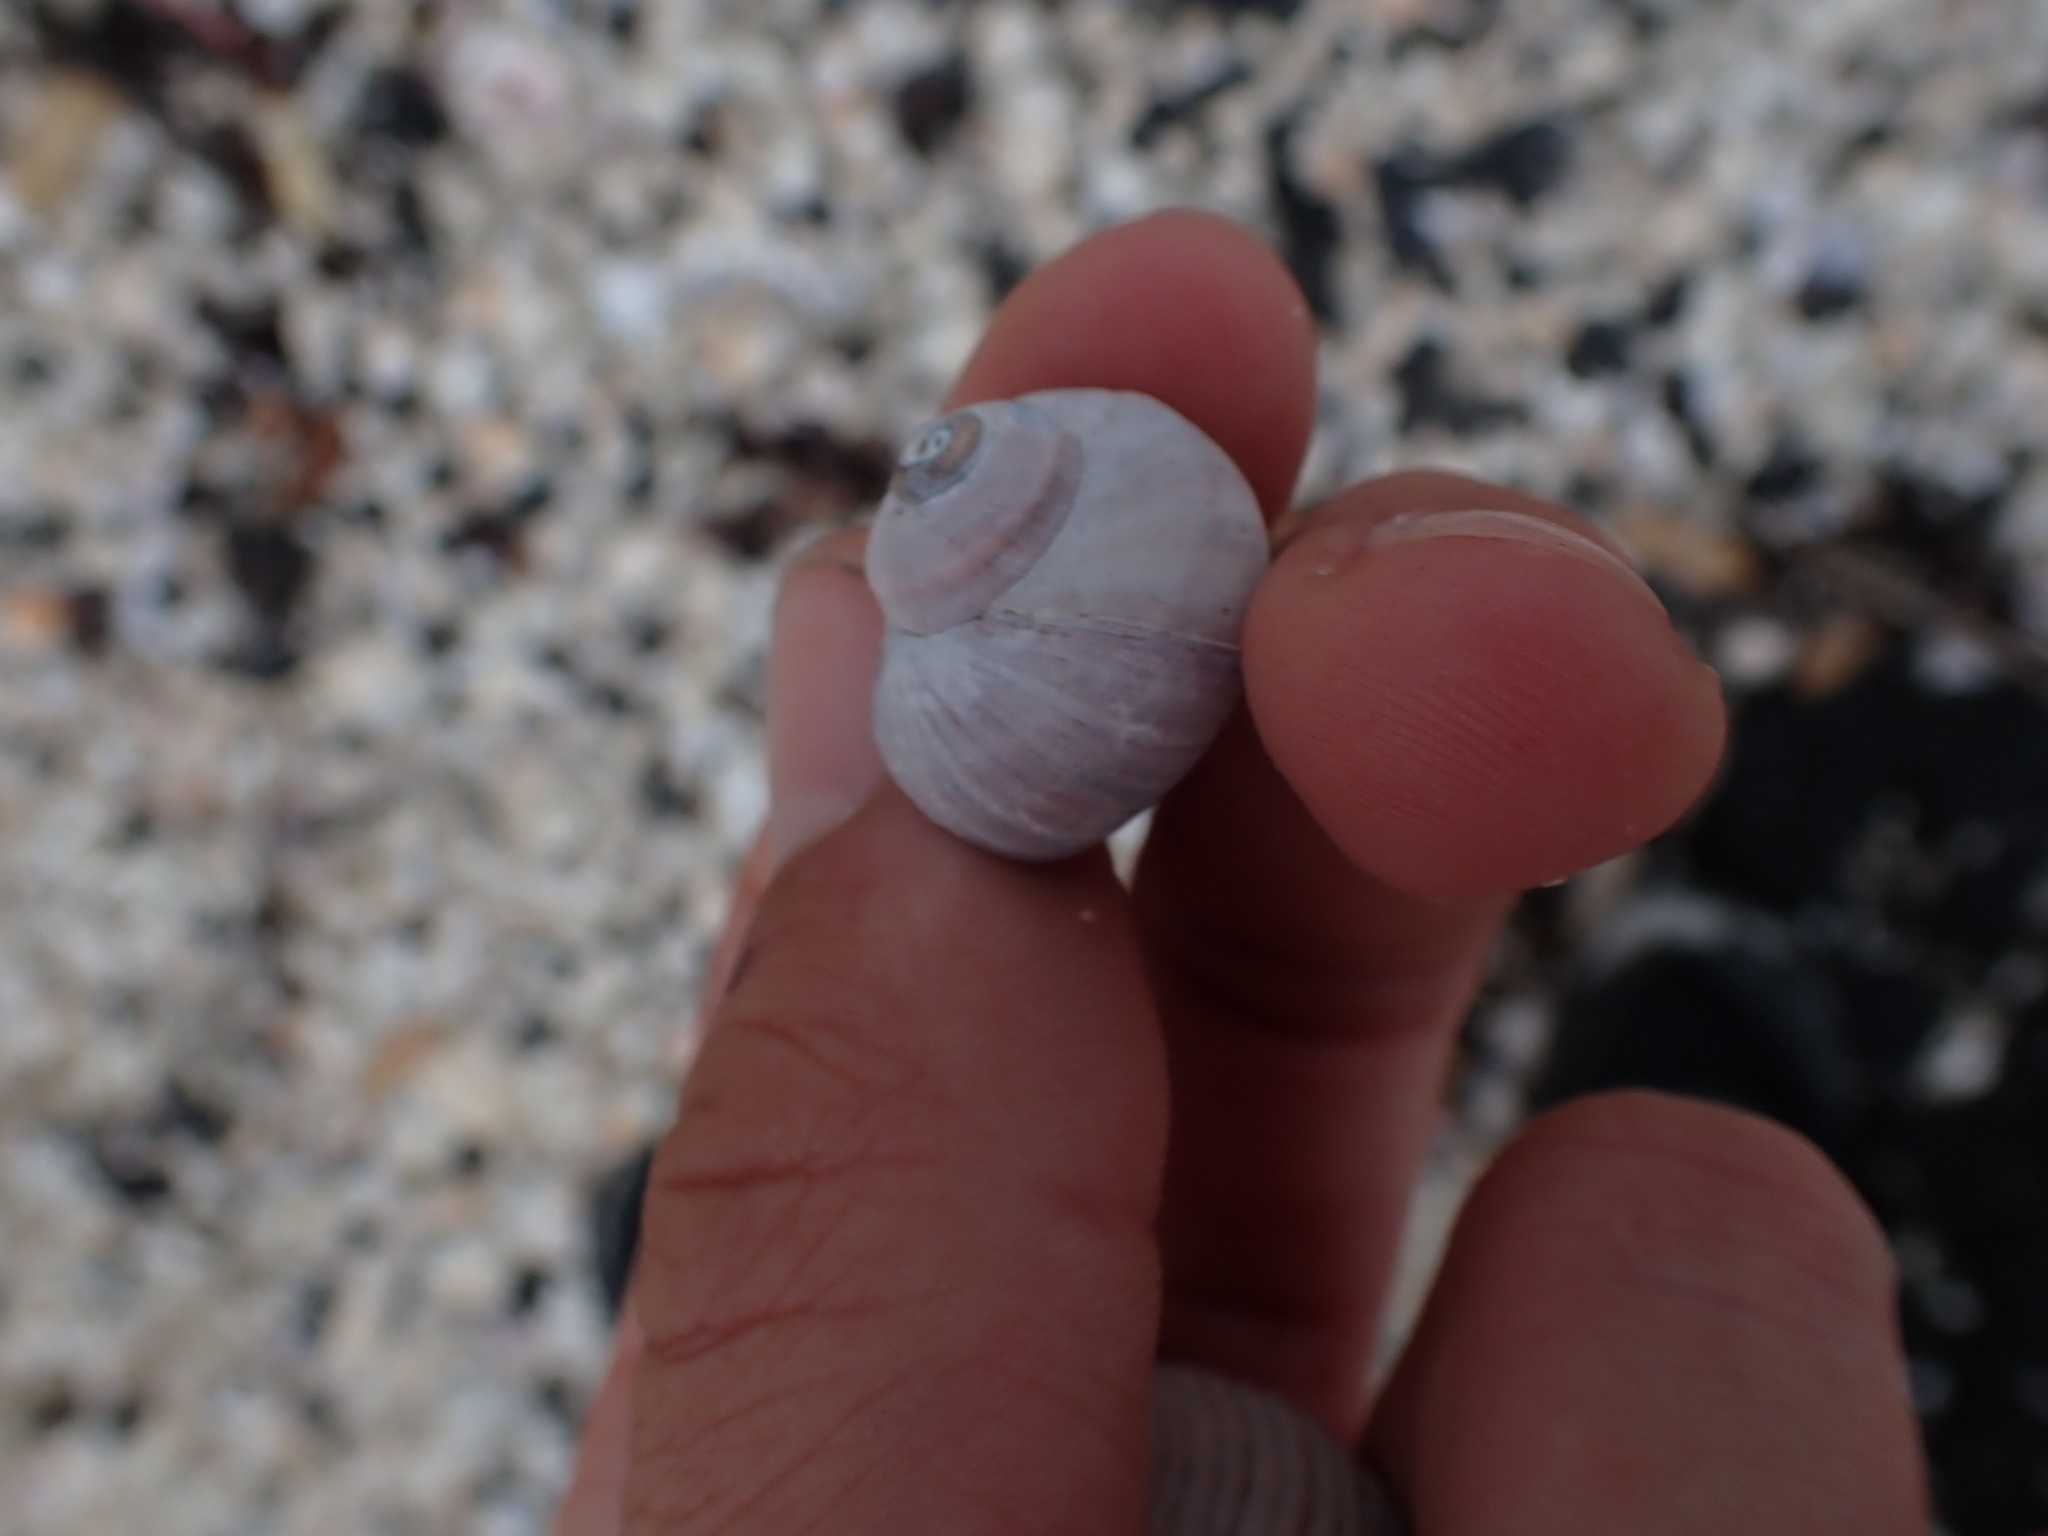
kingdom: Animalia
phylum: Mollusca
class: Gastropoda
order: Trochida
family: Turbinidae
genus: Lunella
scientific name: Lunella smaragda
